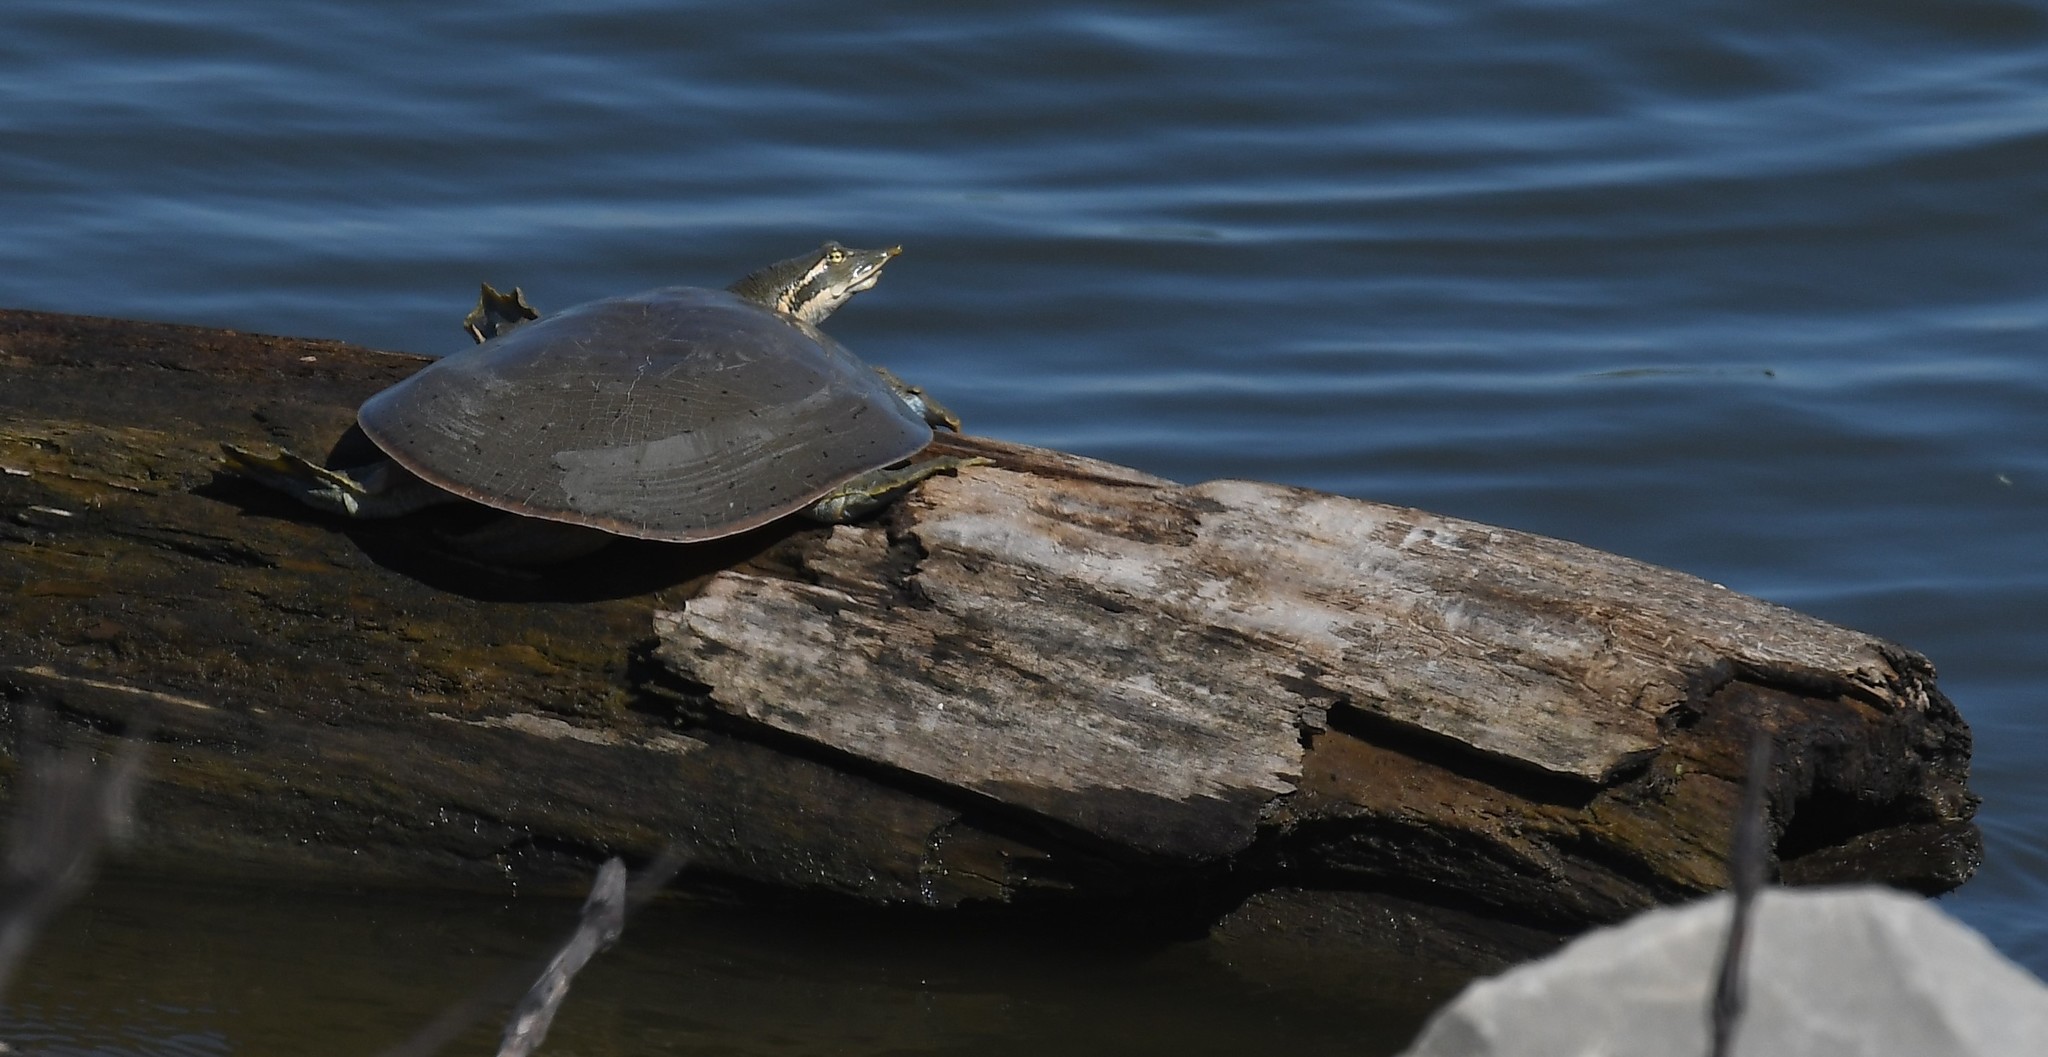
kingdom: Animalia
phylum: Chordata
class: Testudines
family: Trionychidae
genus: Apalone
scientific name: Apalone mutica
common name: Smooth softshell turtle
